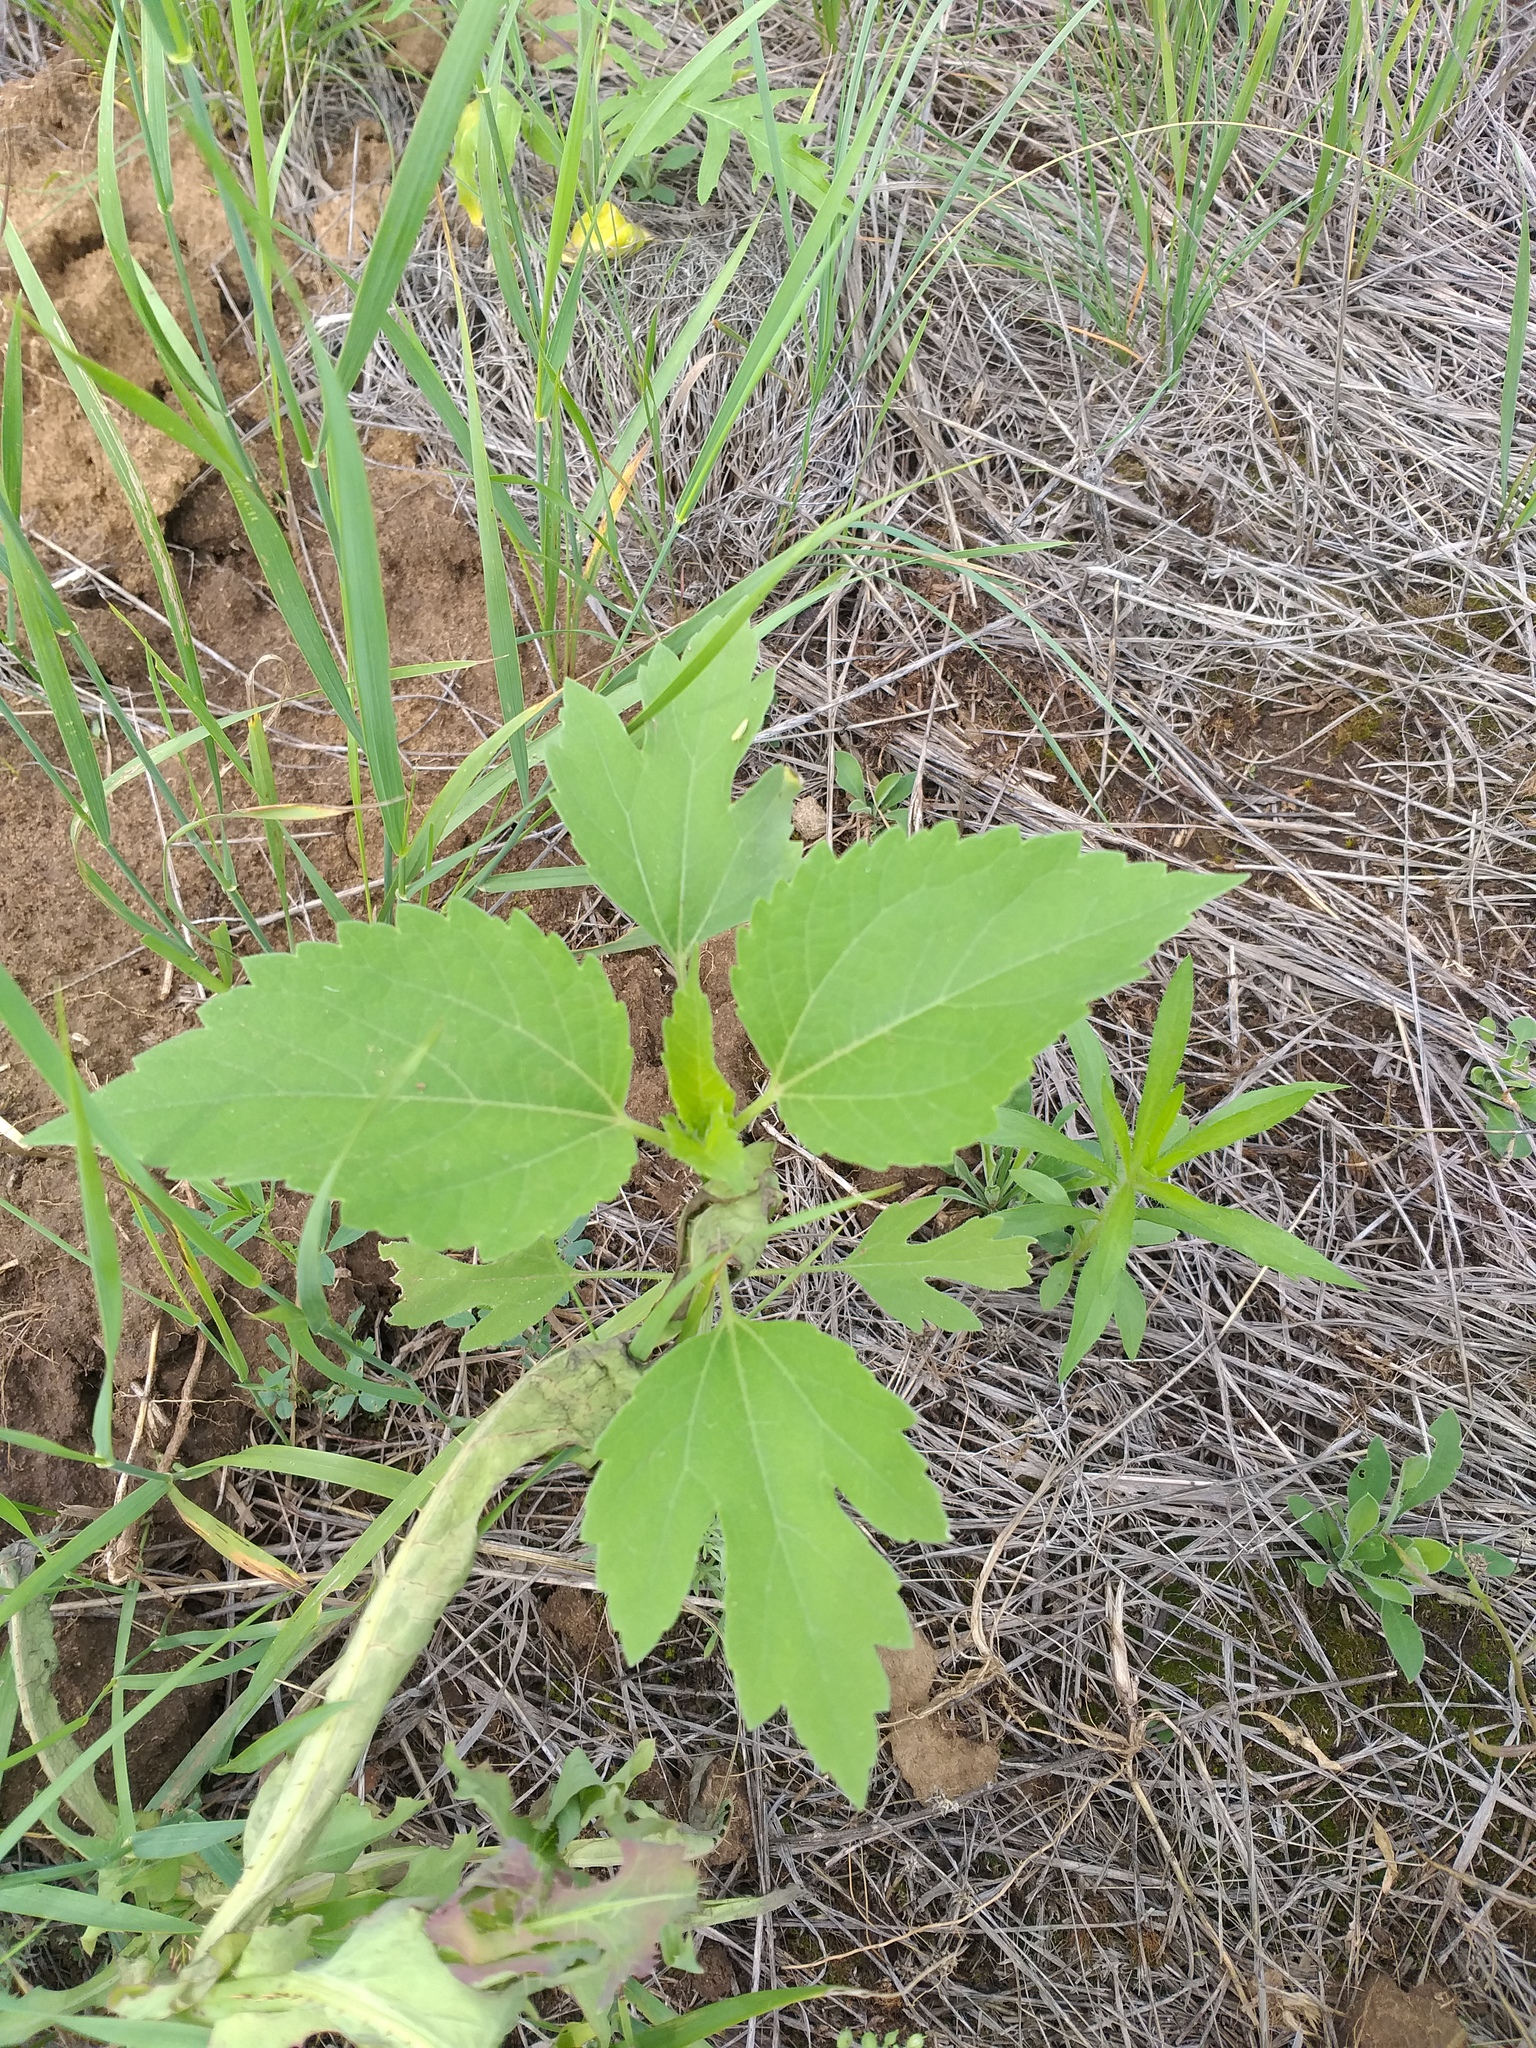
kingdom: Plantae
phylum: Tracheophyta
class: Magnoliopsida
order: Asterales
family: Asteraceae
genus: Cyclachaena
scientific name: Cyclachaena xanthiifolia
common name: Giant sumpweed
